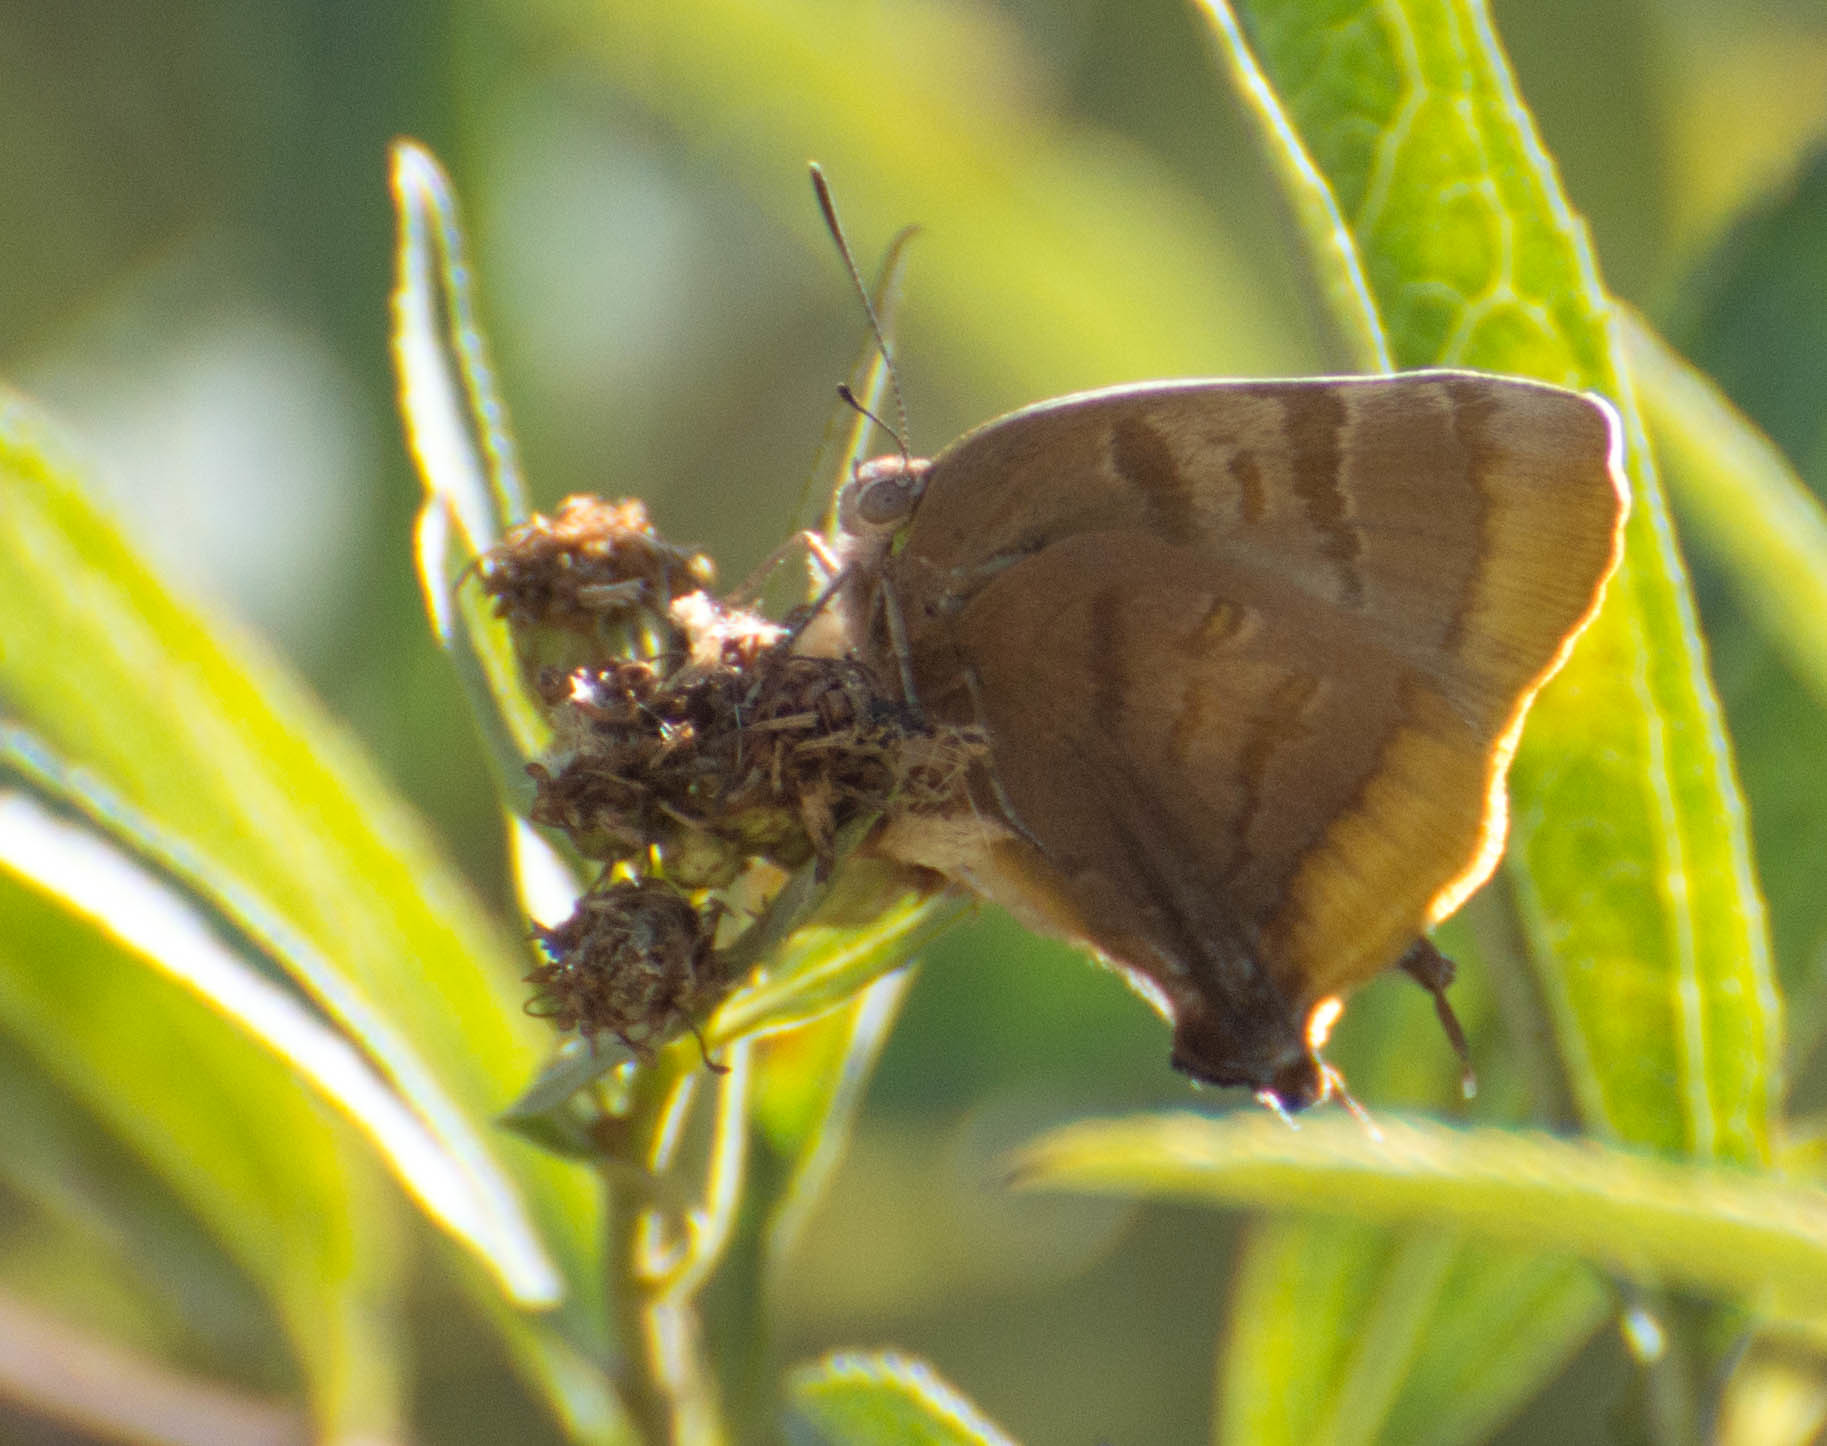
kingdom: Animalia
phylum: Arthropoda
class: Insecta
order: Lepidoptera
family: Lycaenidae
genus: Thecla
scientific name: Thecla marius
